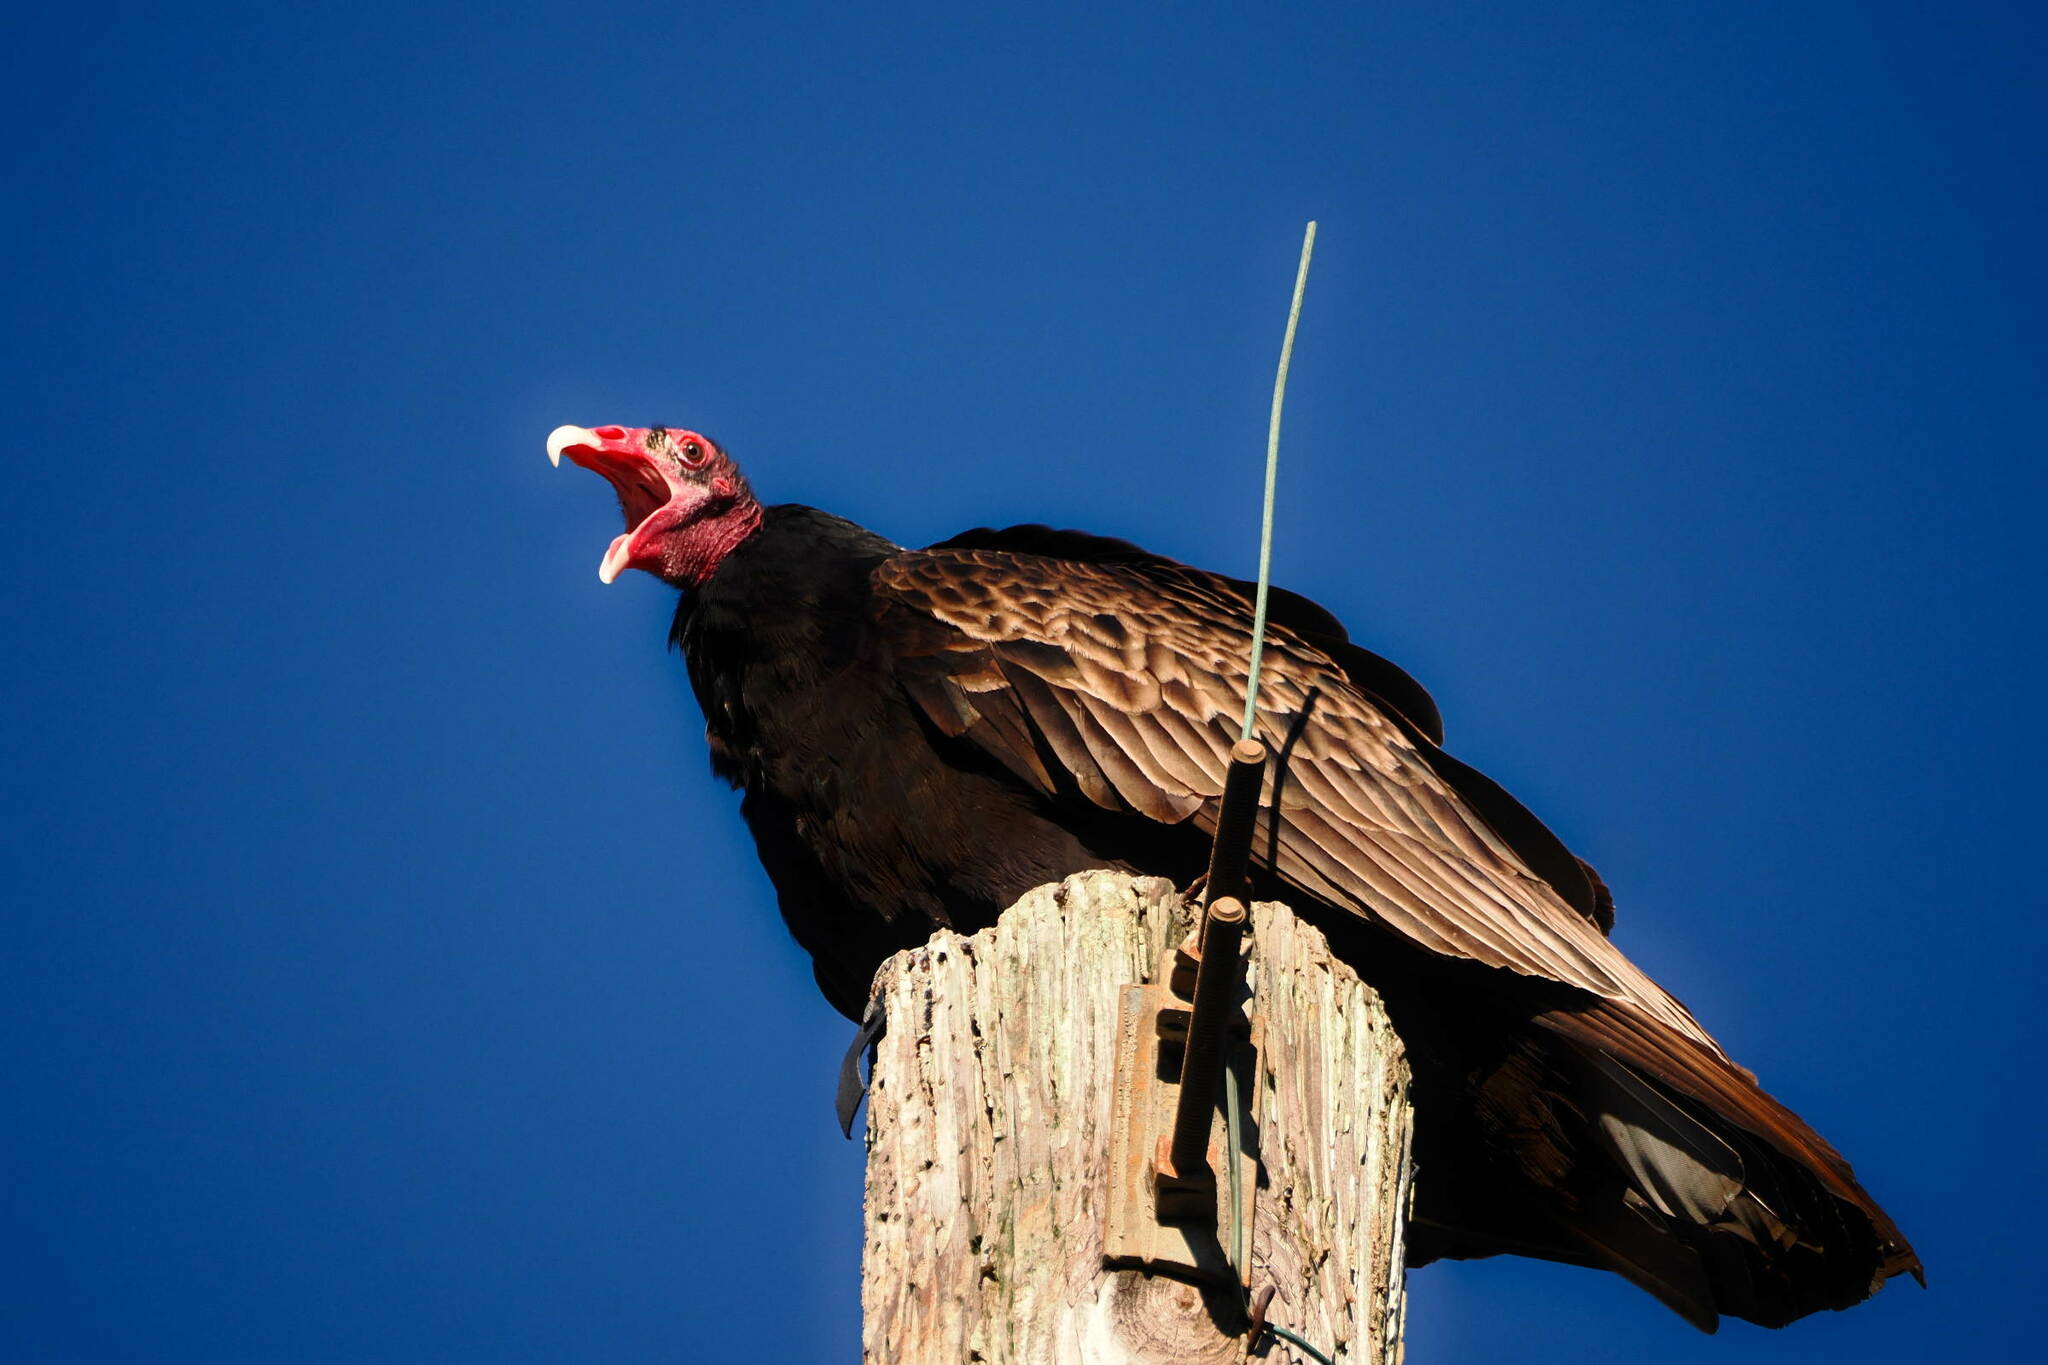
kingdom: Animalia
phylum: Chordata
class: Aves
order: Accipitriformes
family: Cathartidae
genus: Cathartes
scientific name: Cathartes aura
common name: Turkey vulture
